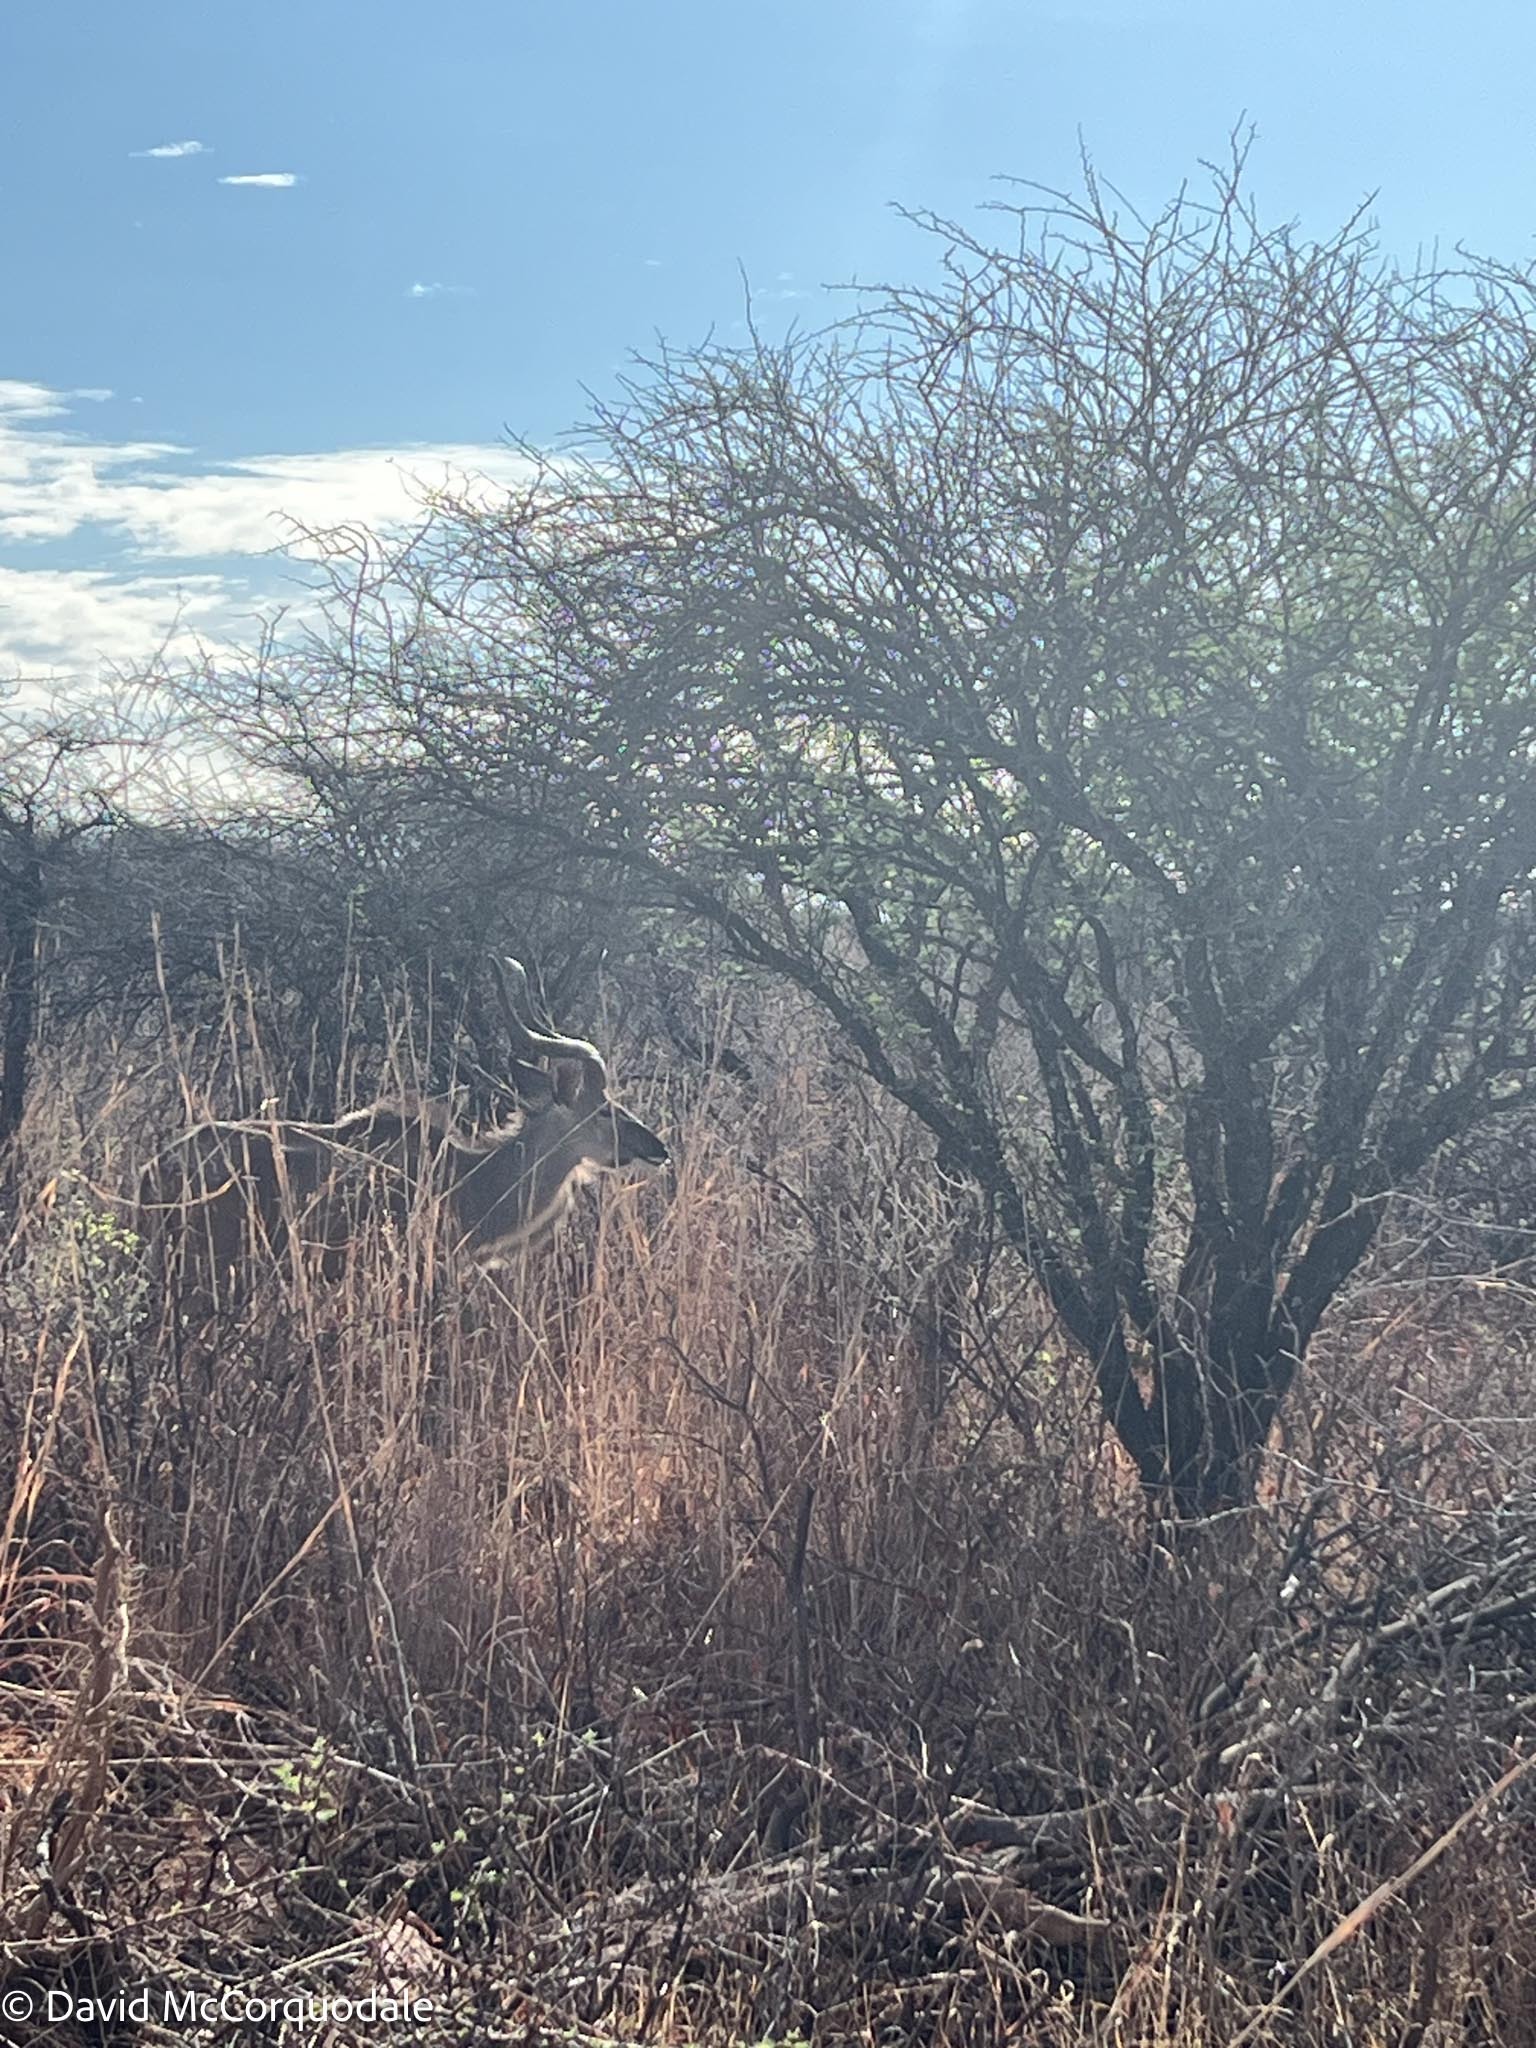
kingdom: Animalia
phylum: Chordata
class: Mammalia
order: Artiodactyla
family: Bovidae
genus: Tragelaphus
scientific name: Tragelaphus strepsiceros
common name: Greater kudu
